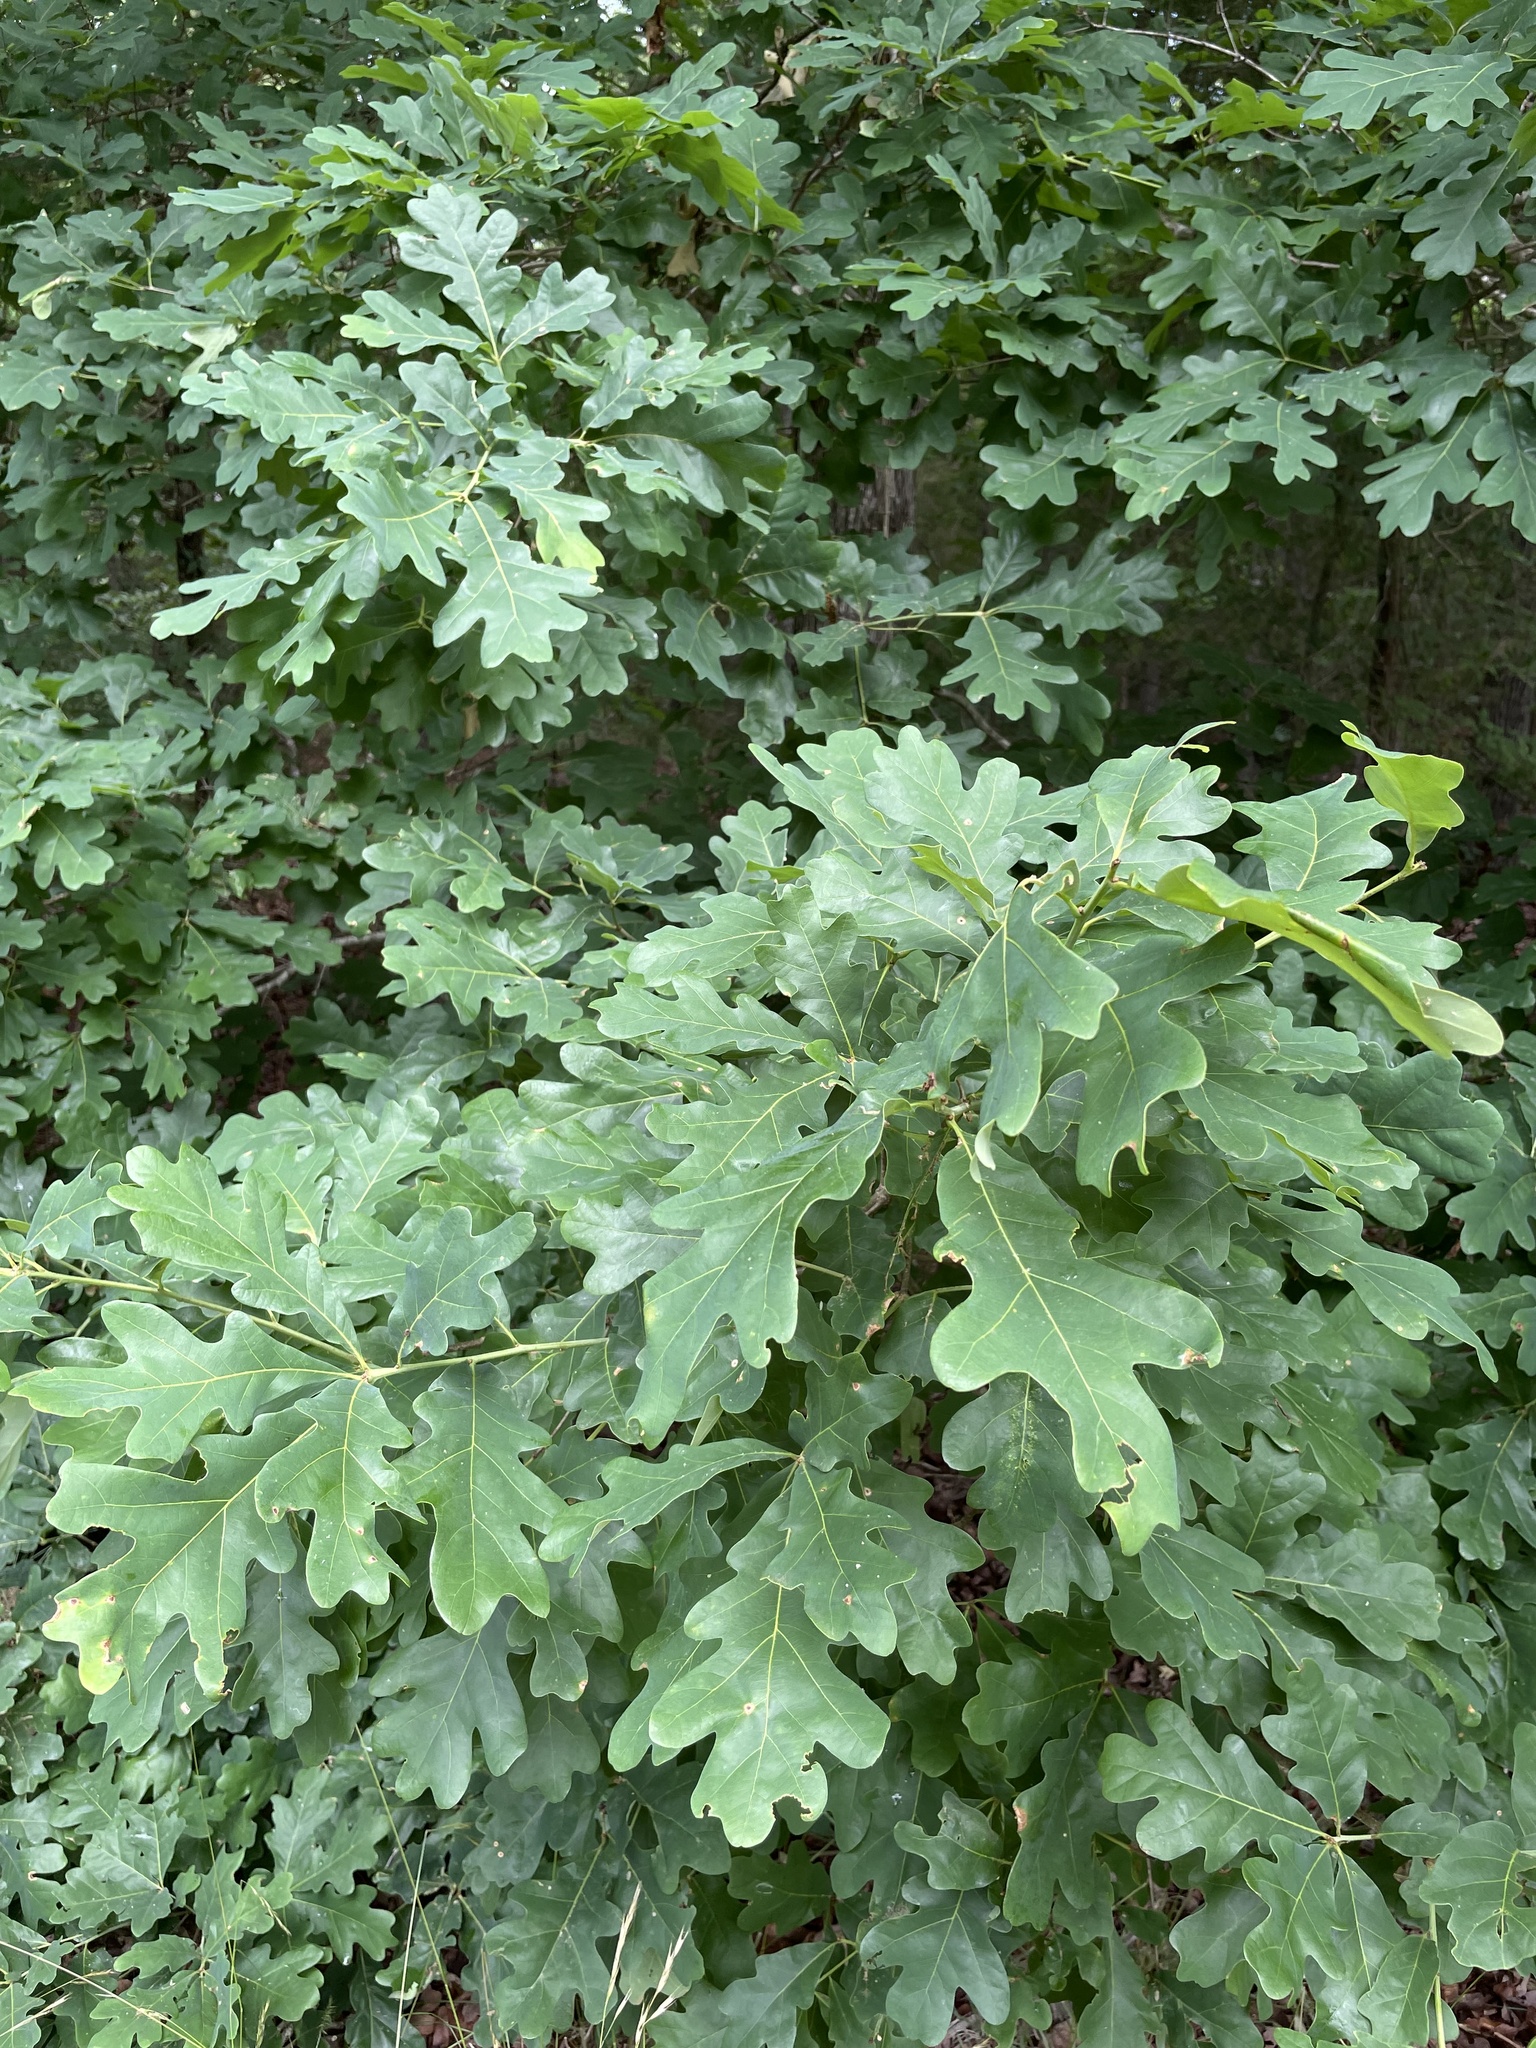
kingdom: Plantae
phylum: Tracheophyta
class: Magnoliopsida
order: Fagales
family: Fagaceae
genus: Quercus
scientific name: Quercus alba
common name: White oak
